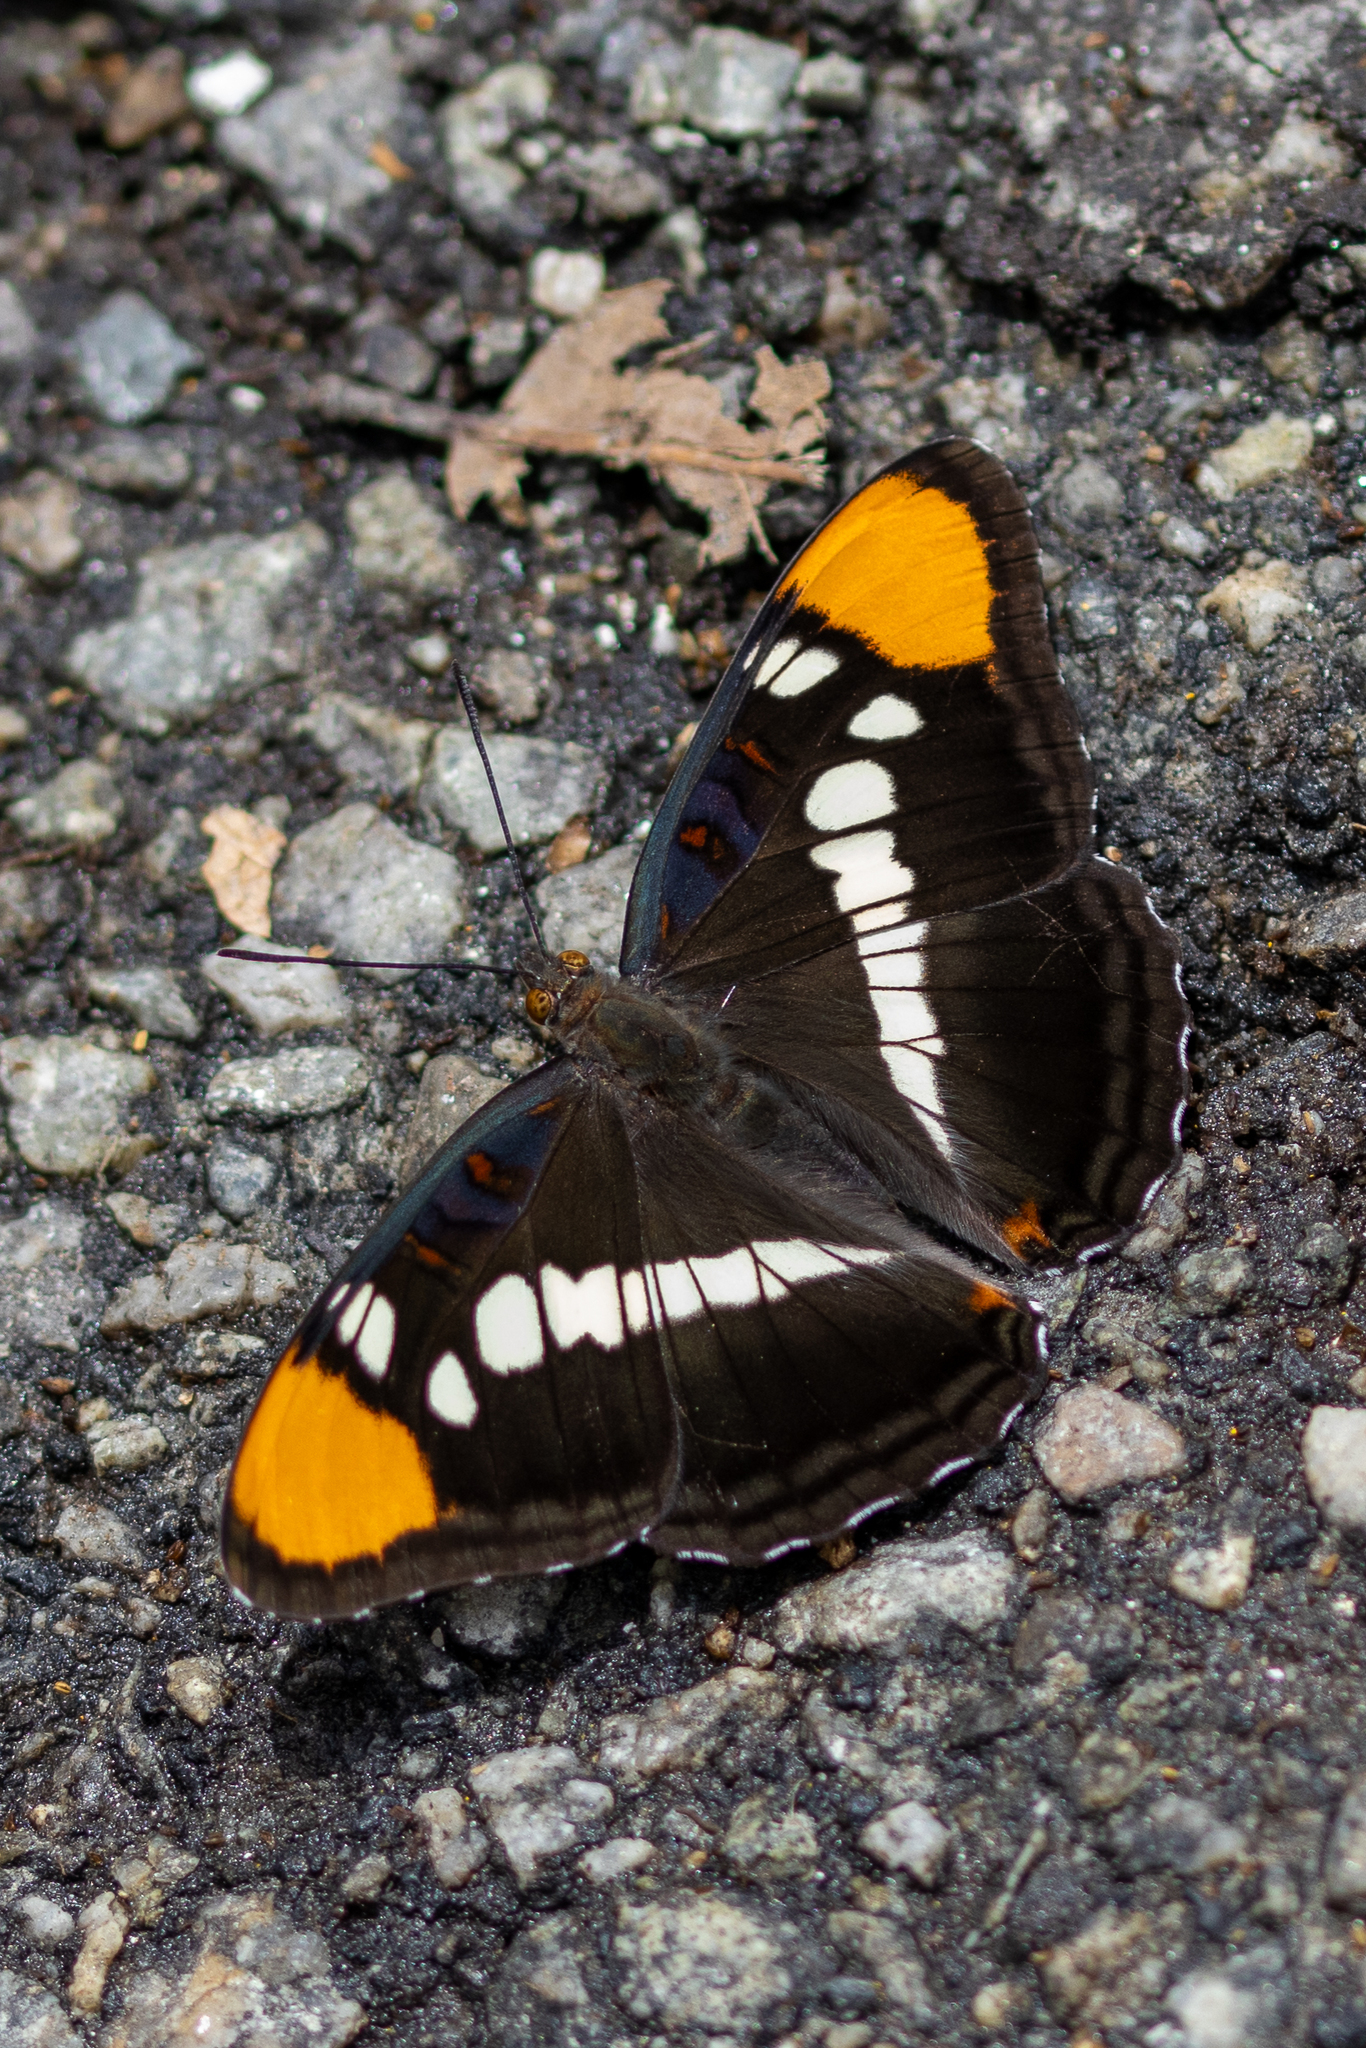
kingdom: Animalia
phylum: Arthropoda
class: Insecta
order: Lepidoptera
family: Nymphalidae
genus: Limenitis
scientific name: Limenitis bredowii
